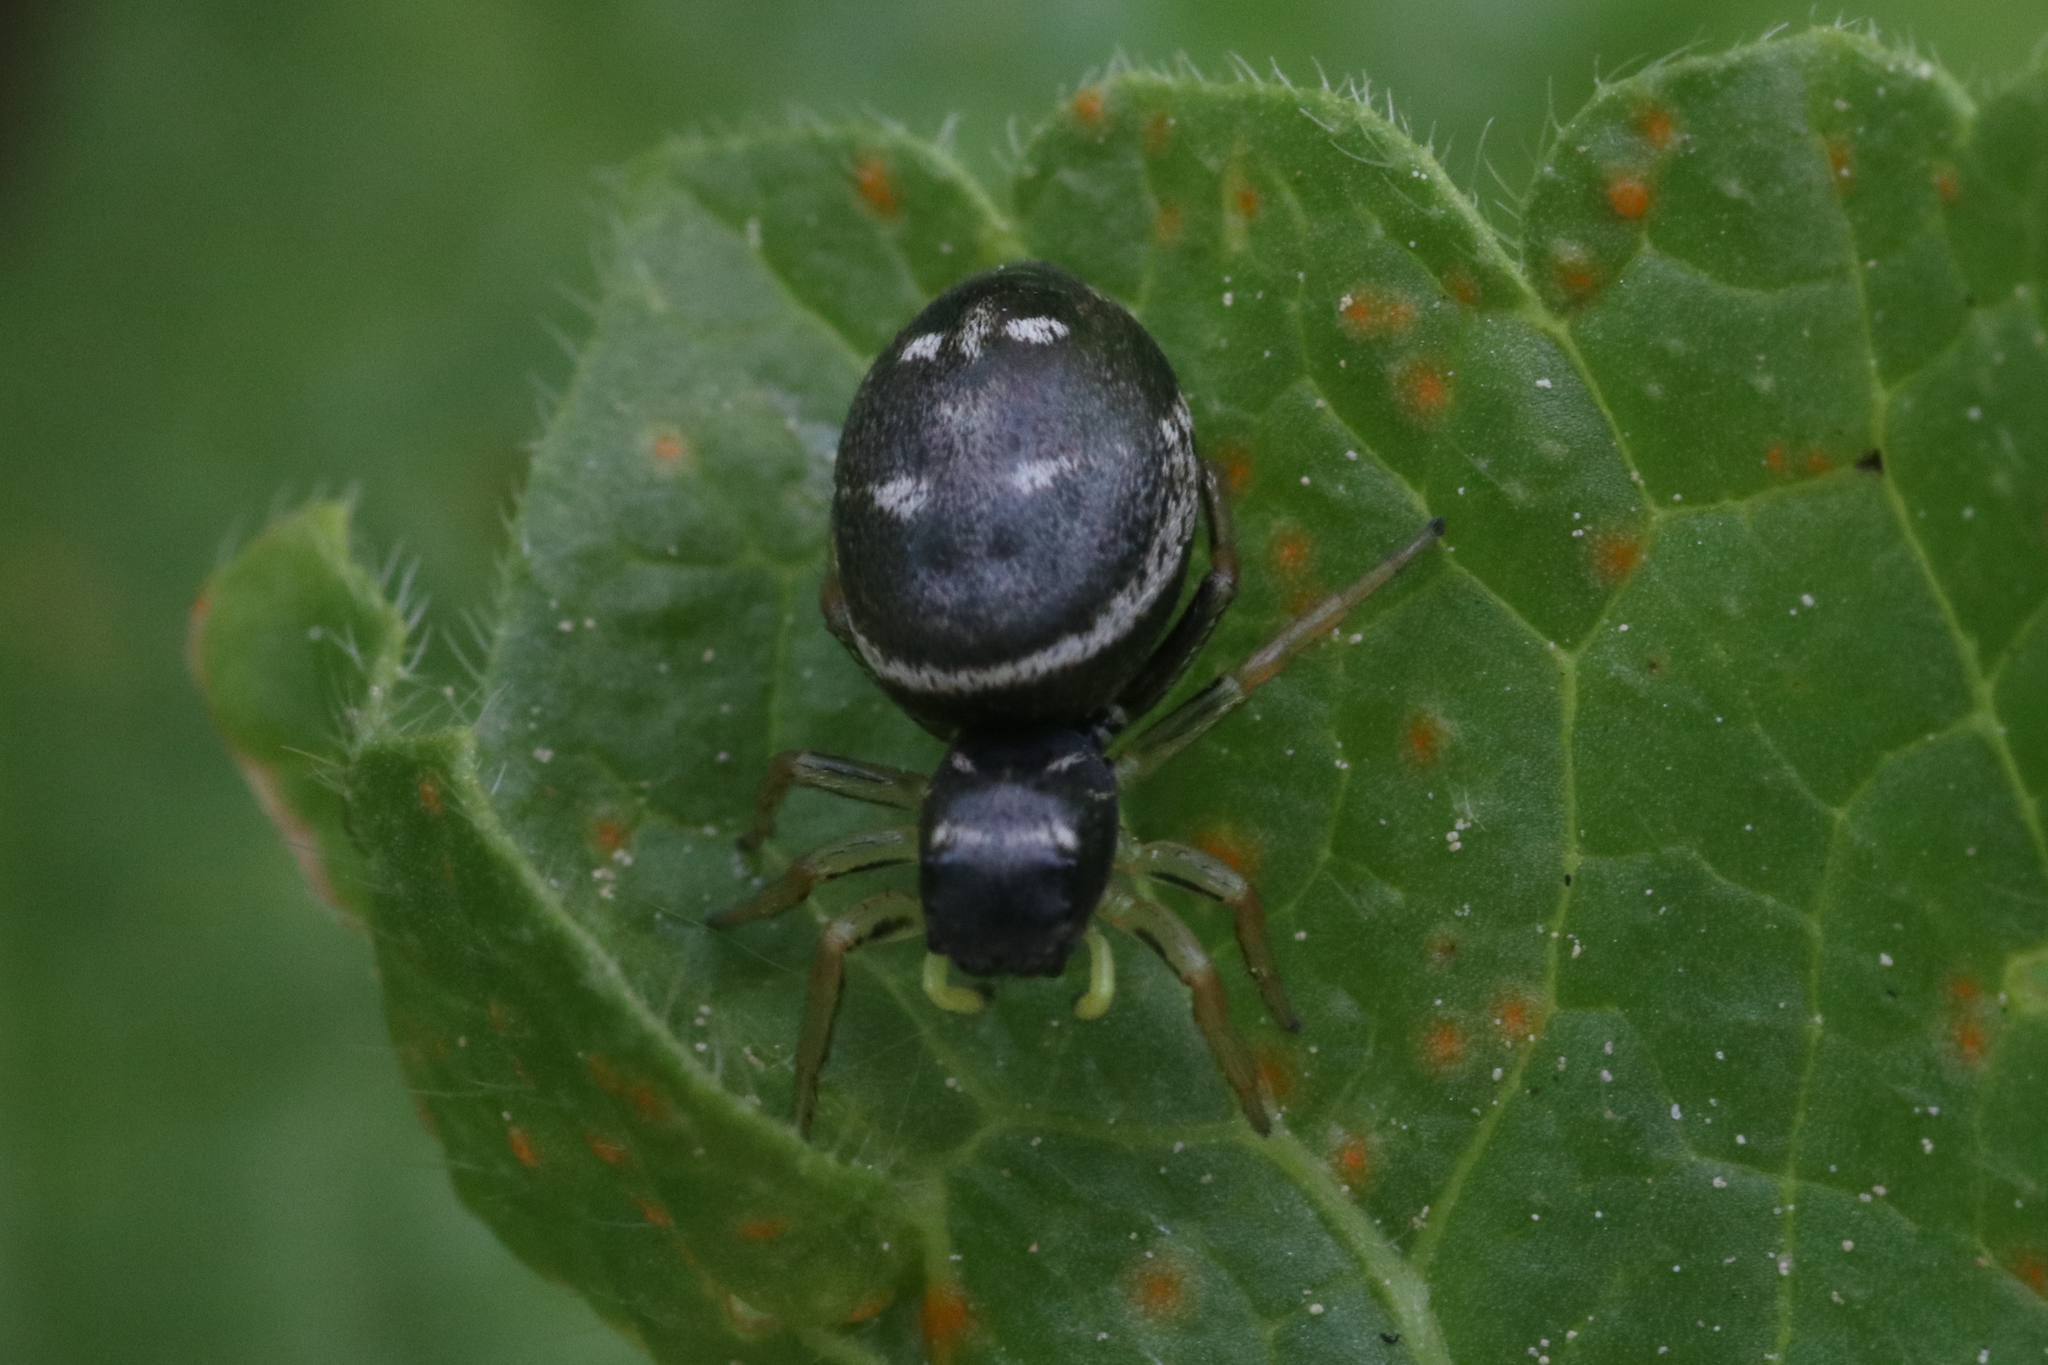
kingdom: Animalia
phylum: Arthropoda
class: Arachnida
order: Araneae
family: Salticidae
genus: Heliophanus
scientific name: Heliophanus cupreus
